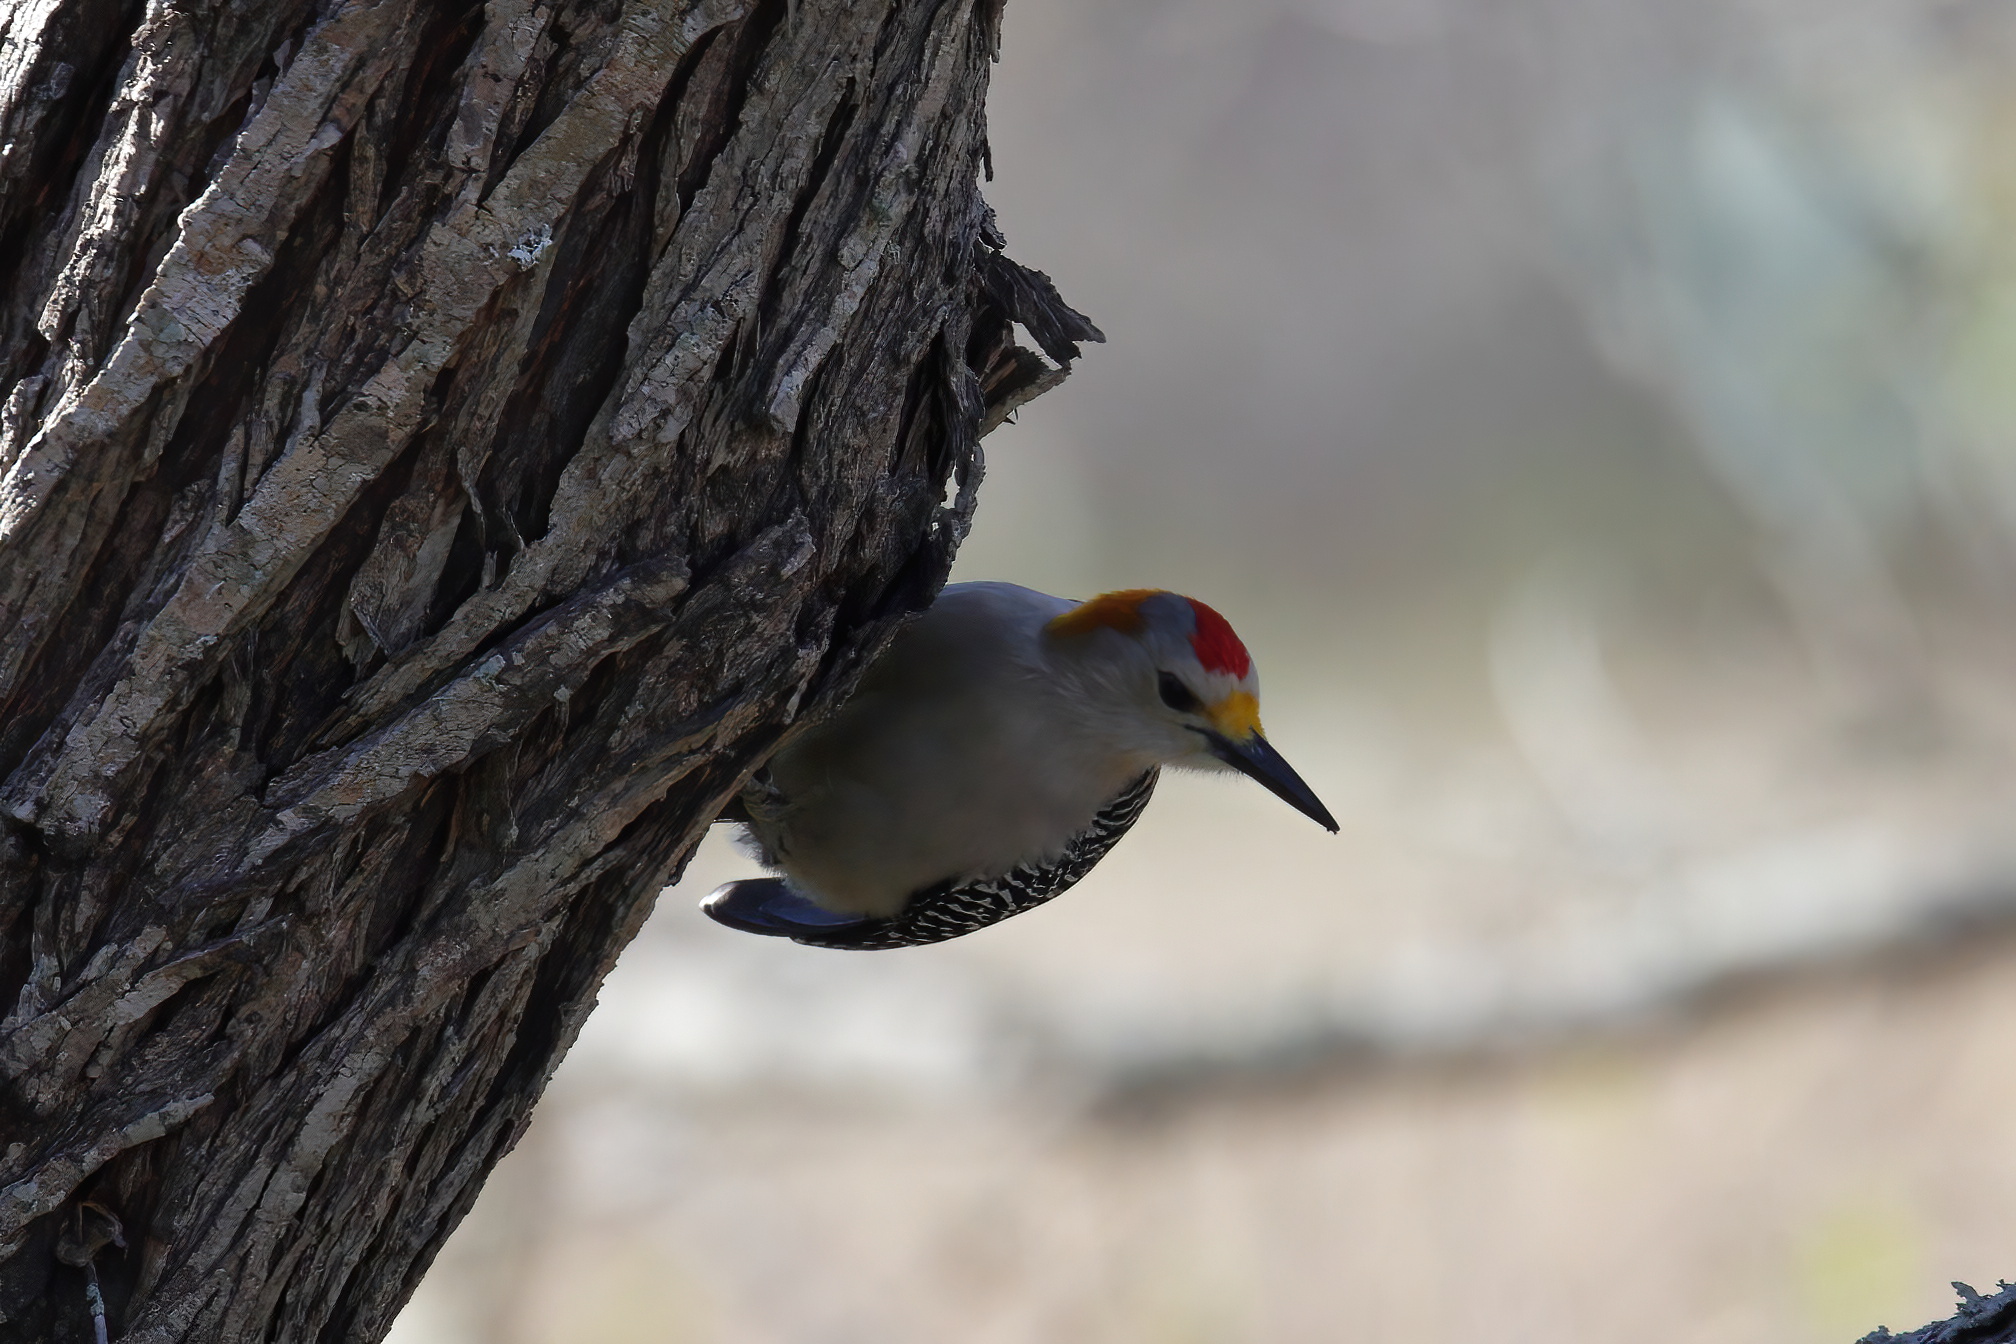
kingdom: Animalia
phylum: Chordata
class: Aves
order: Piciformes
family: Picidae
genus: Melanerpes
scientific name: Melanerpes aurifrons
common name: Golden-fronted woodpecker
